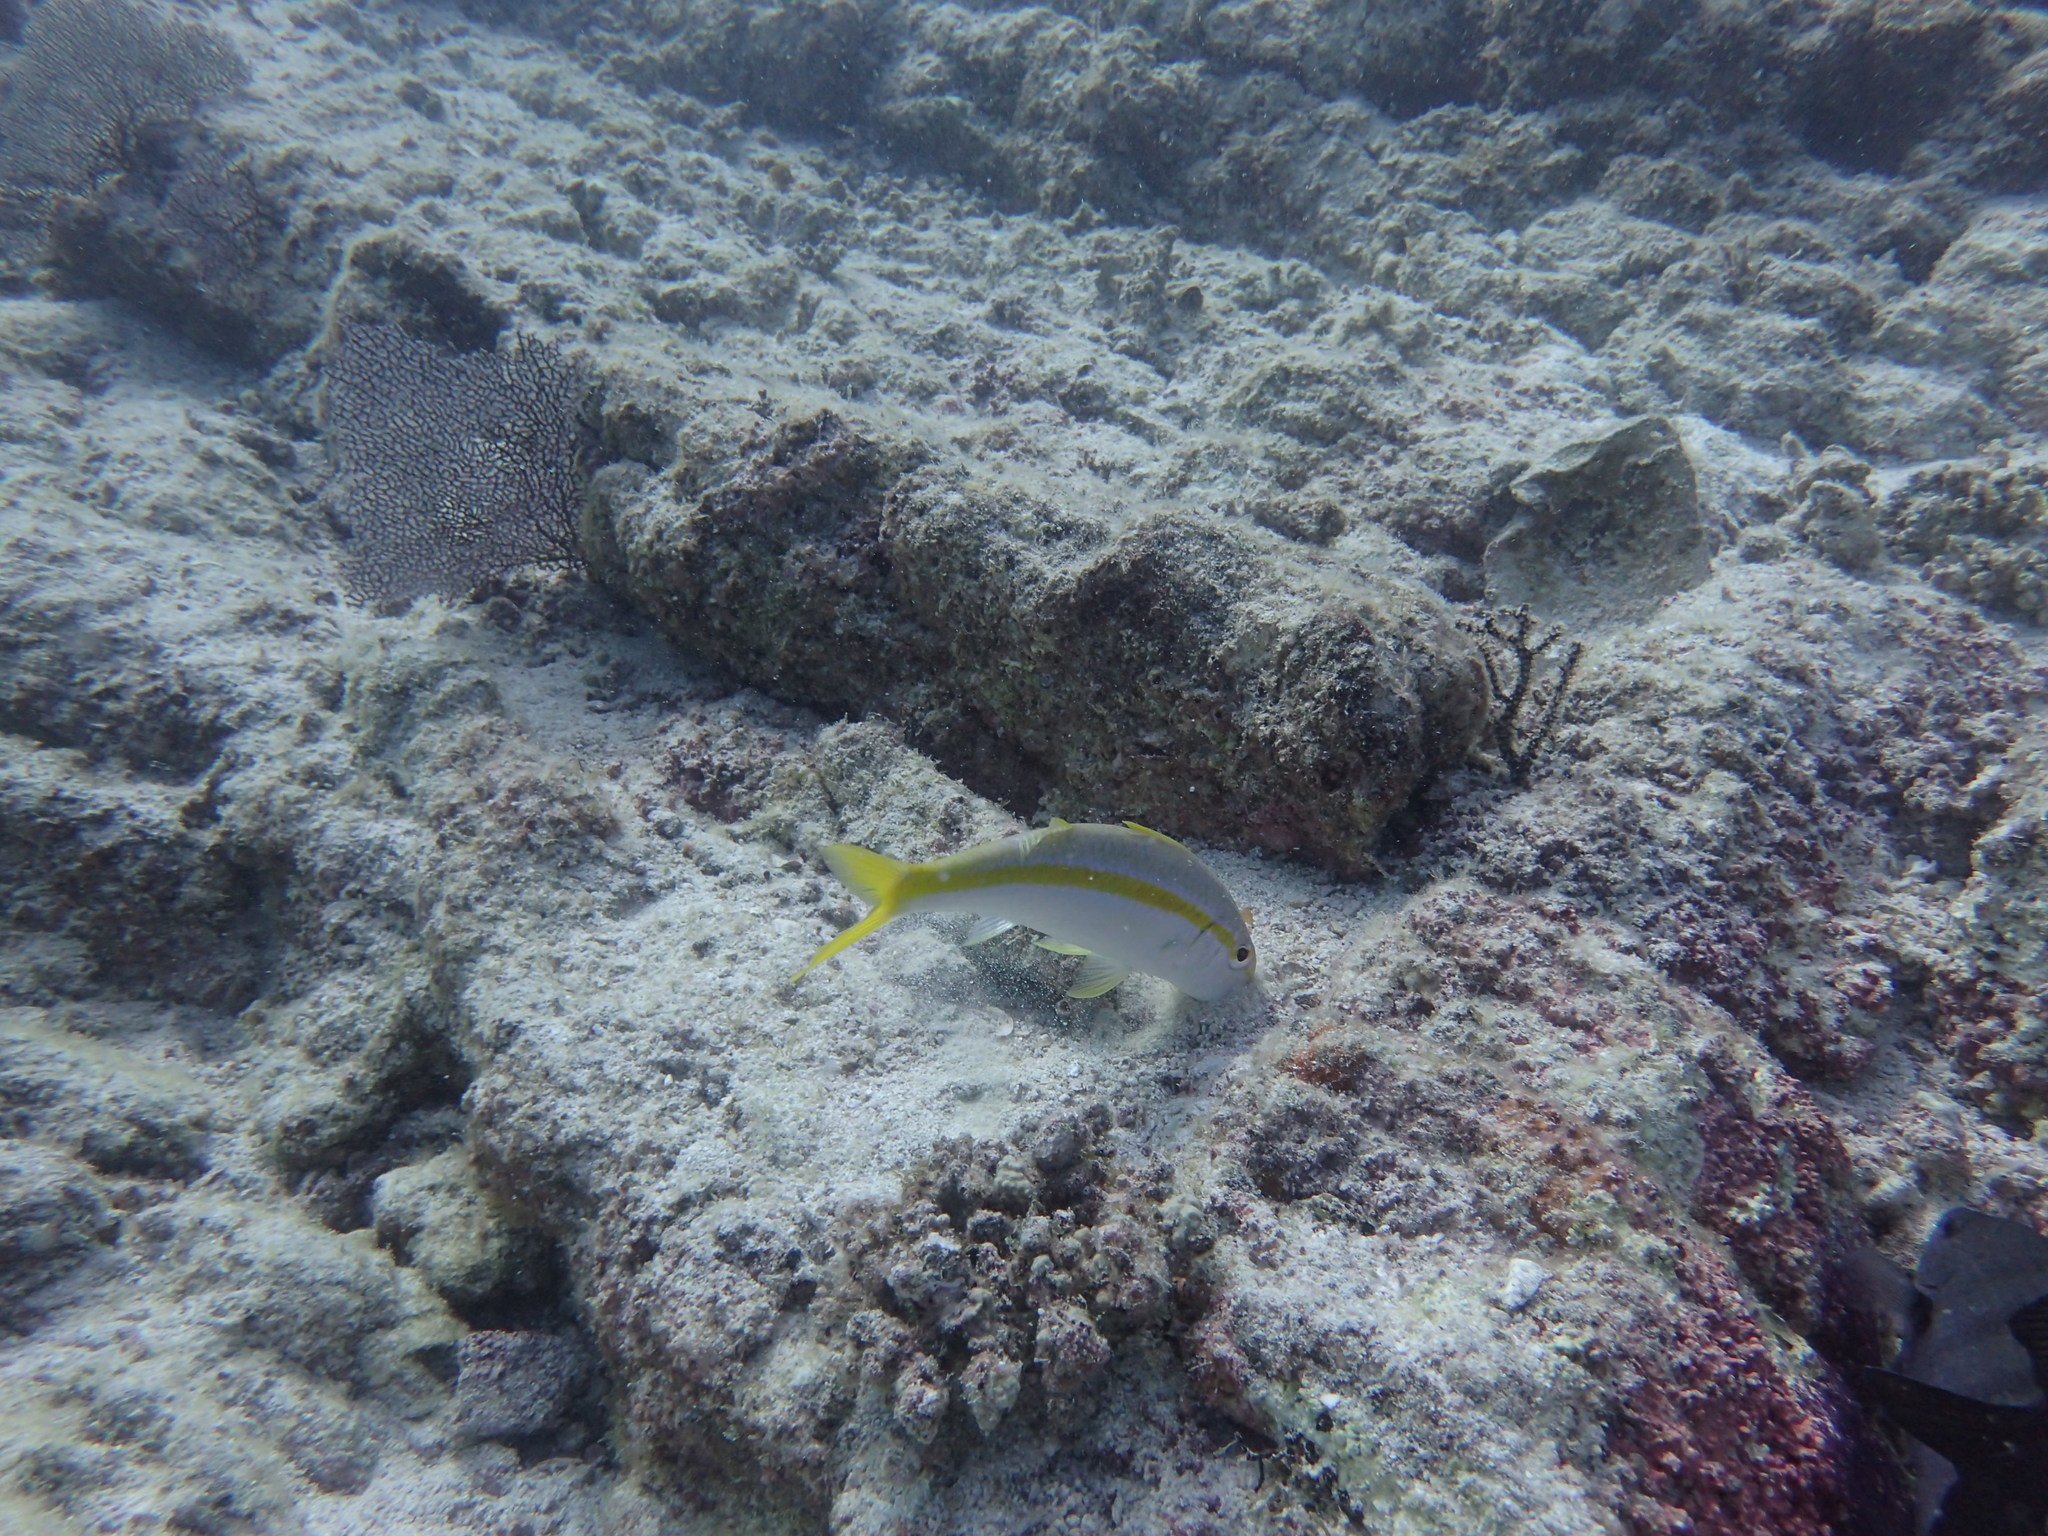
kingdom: Animalia
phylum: Chordata
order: Perciformes
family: Mullidae
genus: Mulloidichthys
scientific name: Mulloidichthys dentatus
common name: Mexican goatfish
